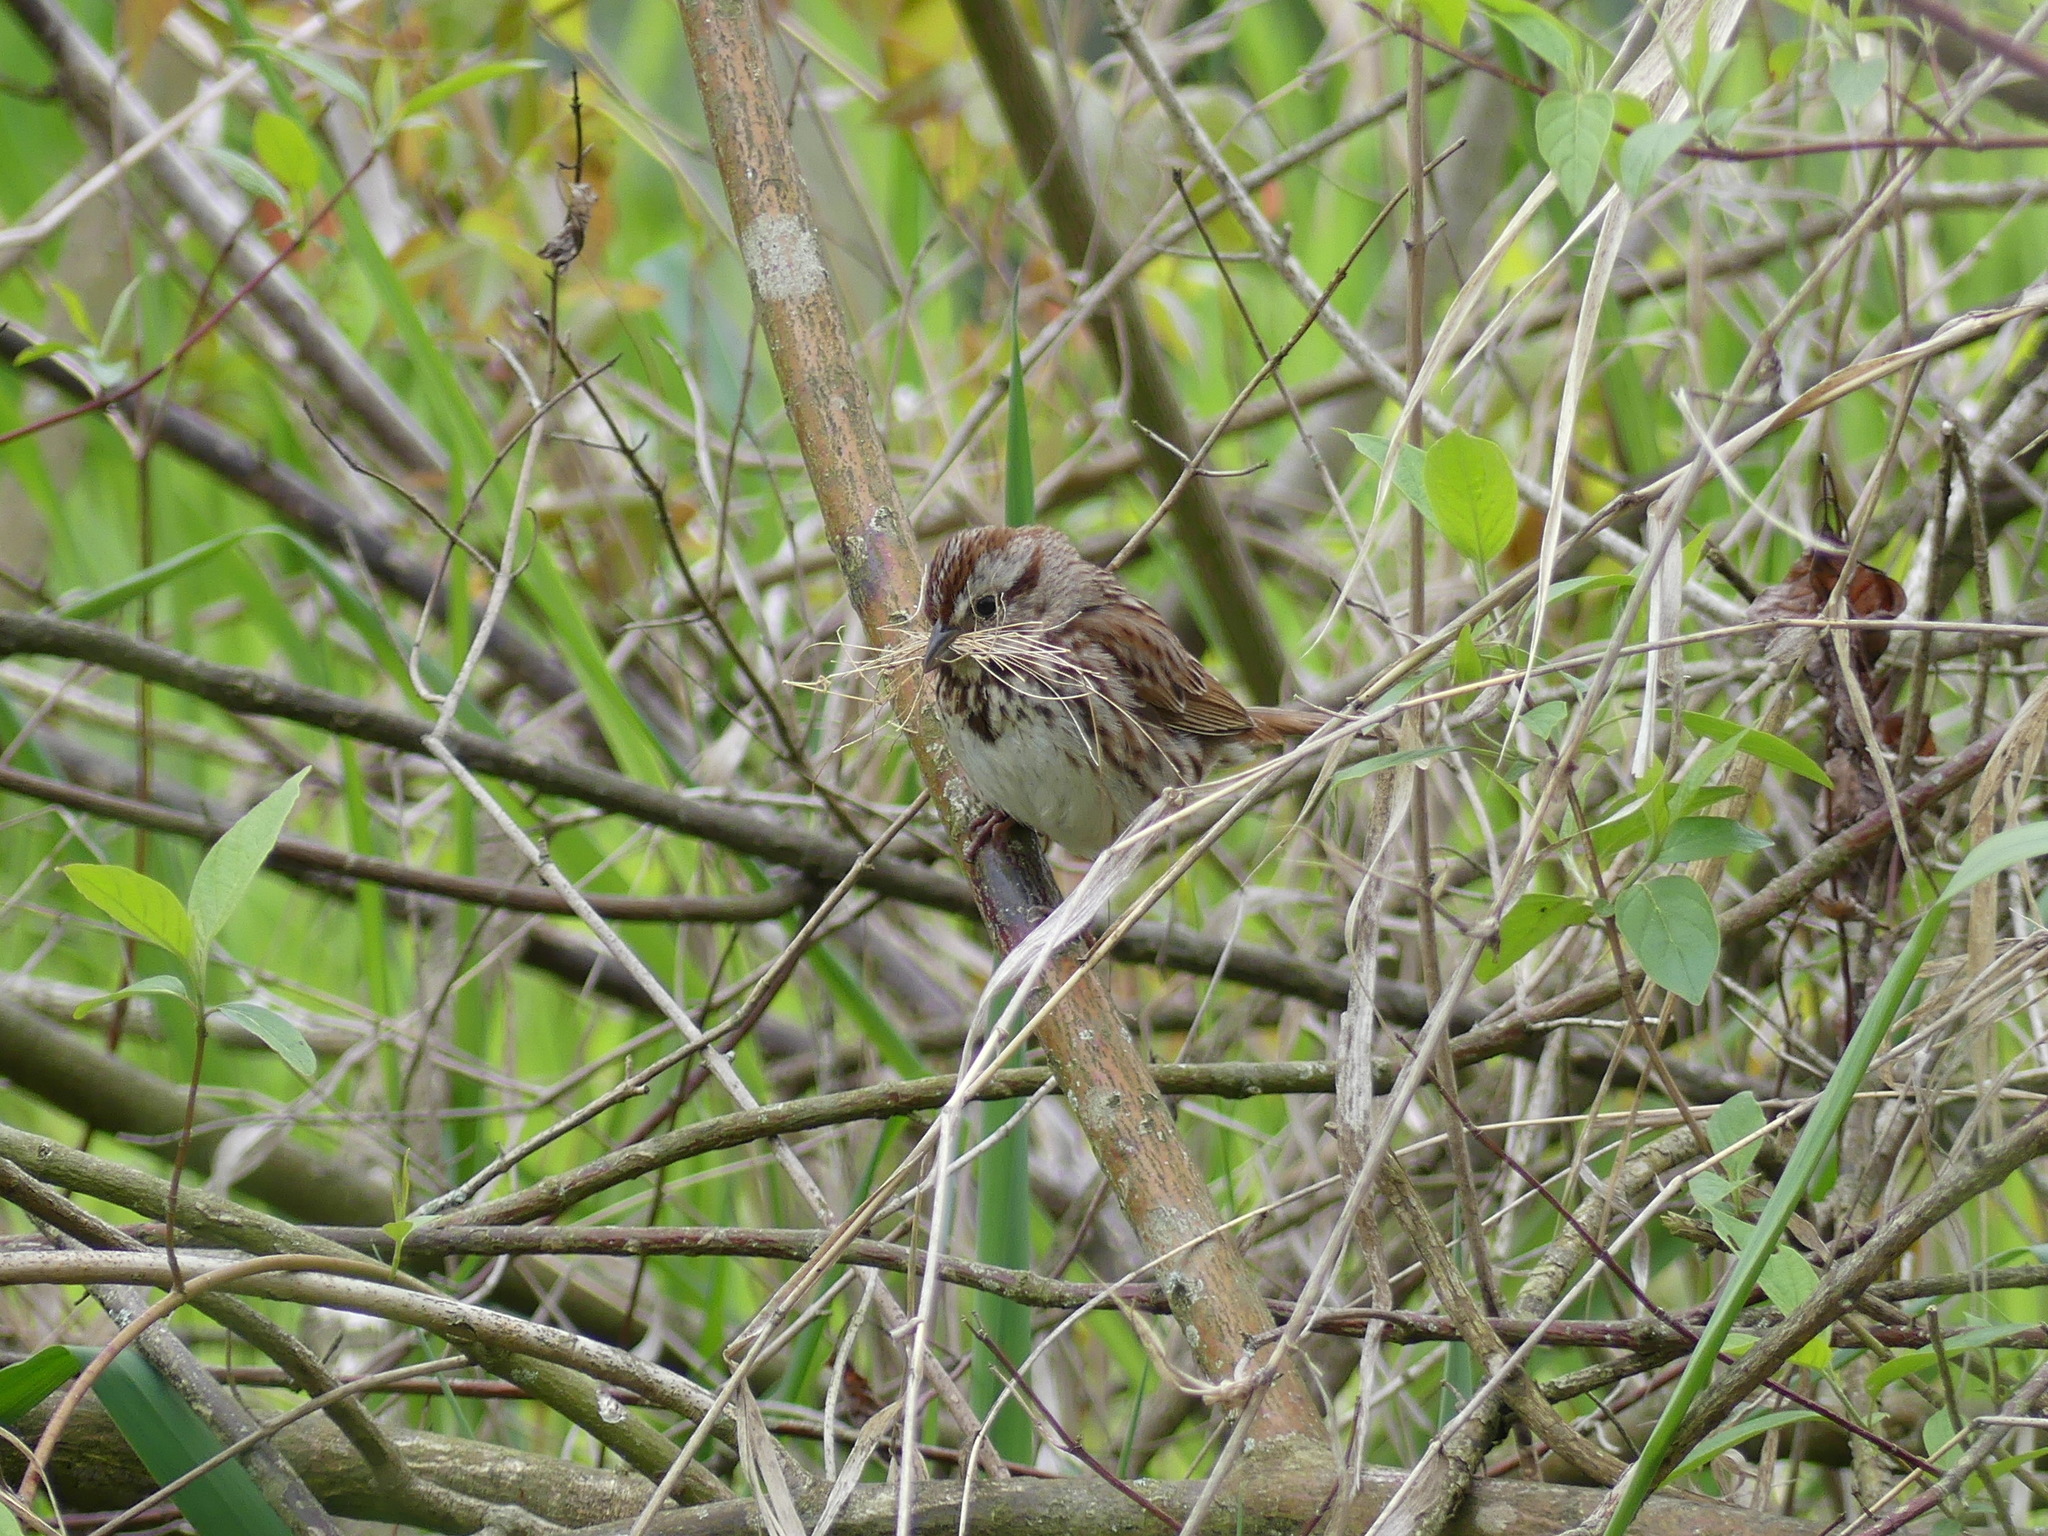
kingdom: Animalia
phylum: Chordata
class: Aves
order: Passeriformes
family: Passerellidae
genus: Melospiza
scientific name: Melospiza melodia
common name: Song sparrow
